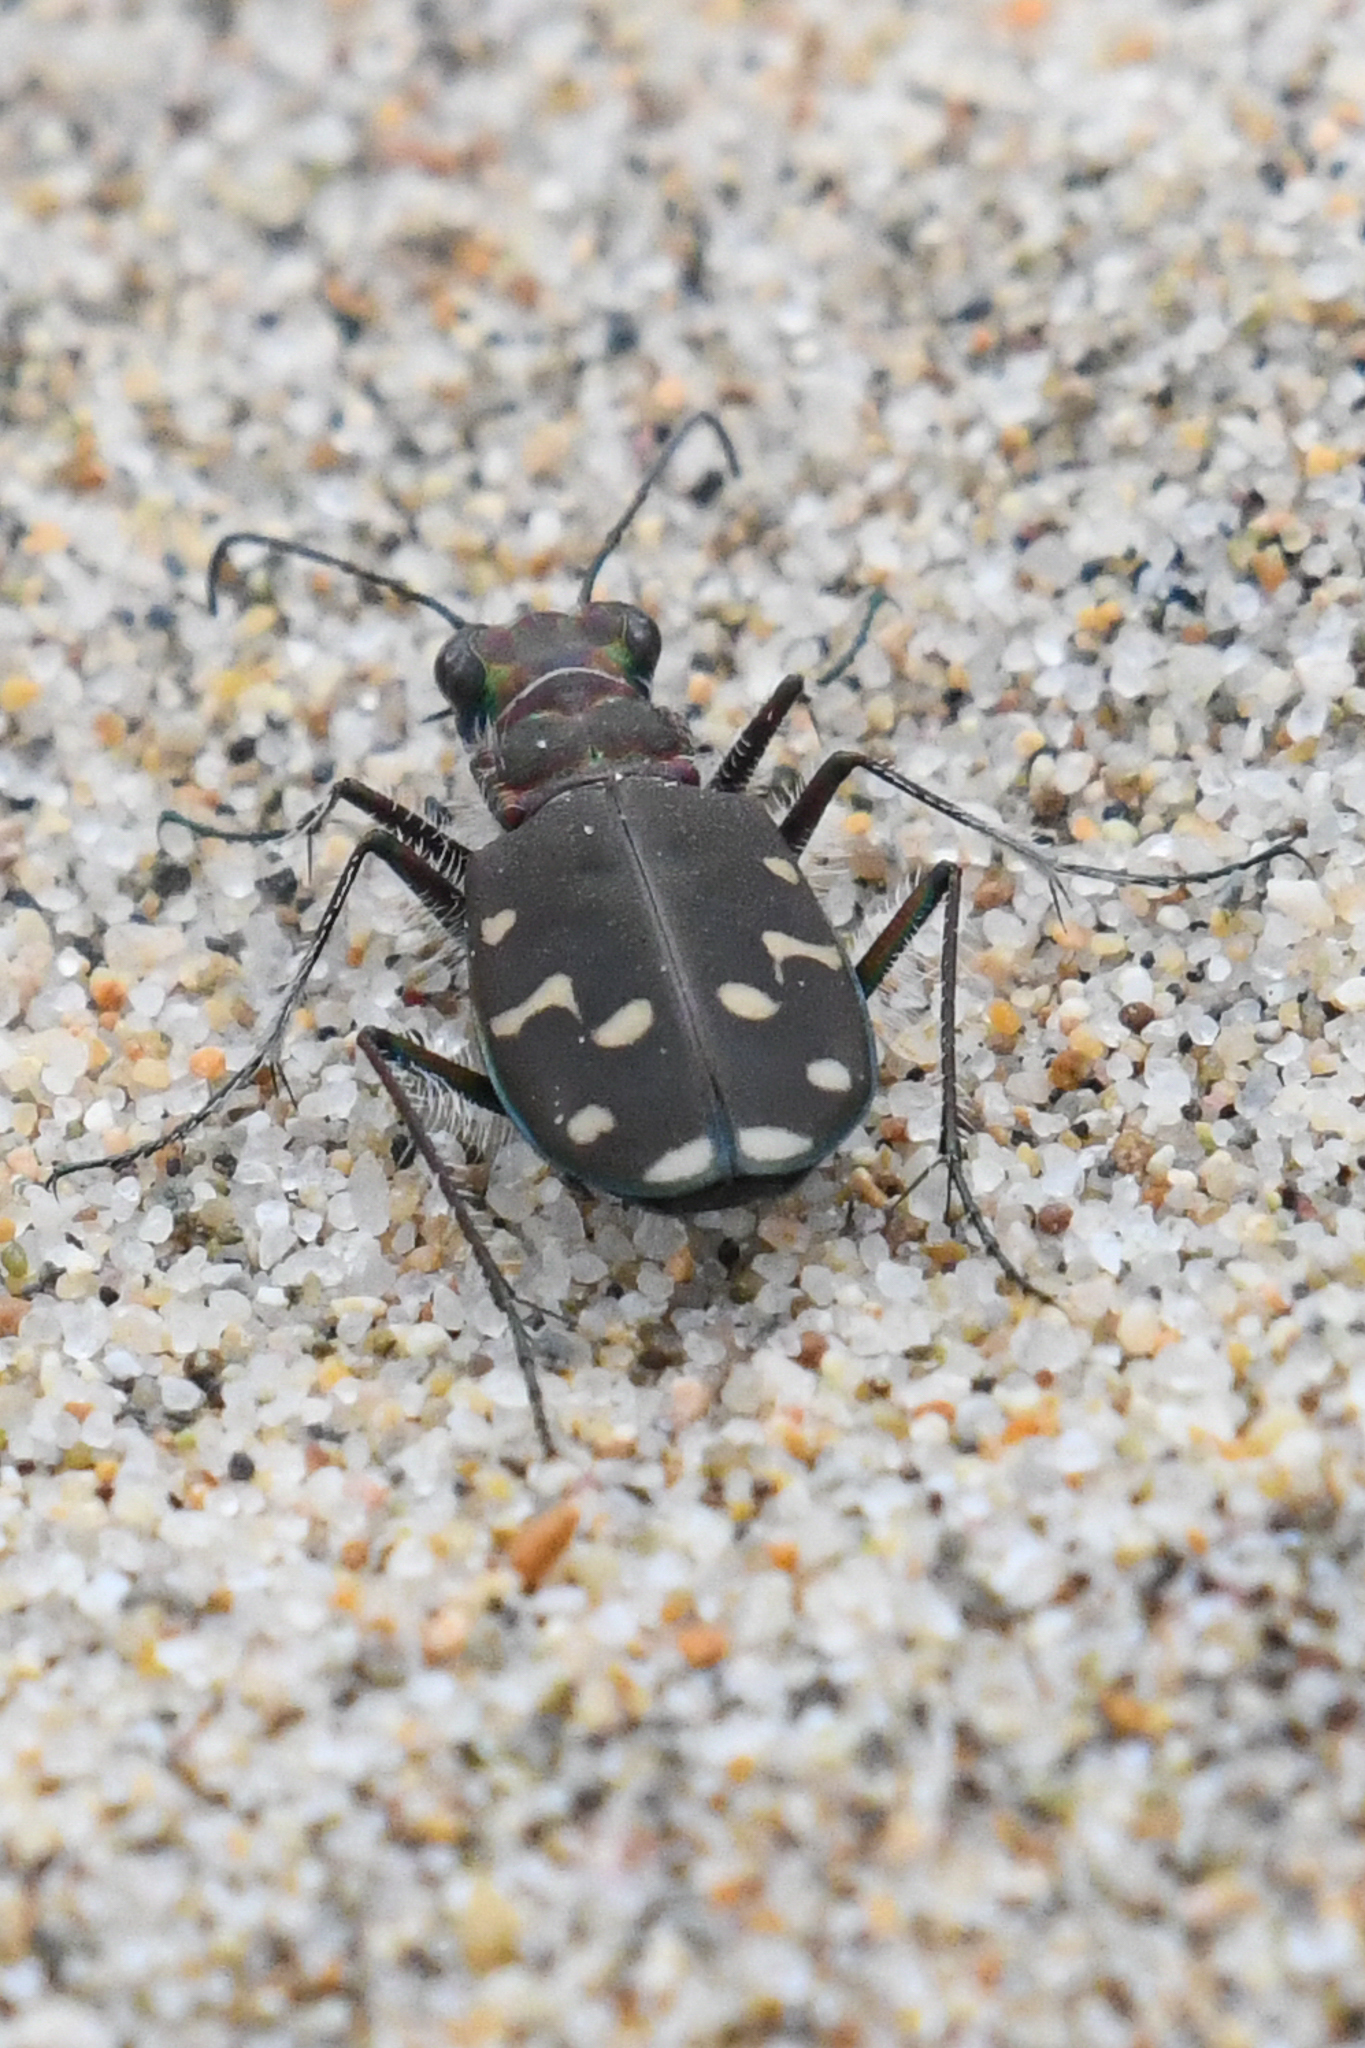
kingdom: Animalia
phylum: Arthropoda
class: Insecta
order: Coleoptera
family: Carabidae
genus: Cicindela
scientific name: Cicindela oregona
